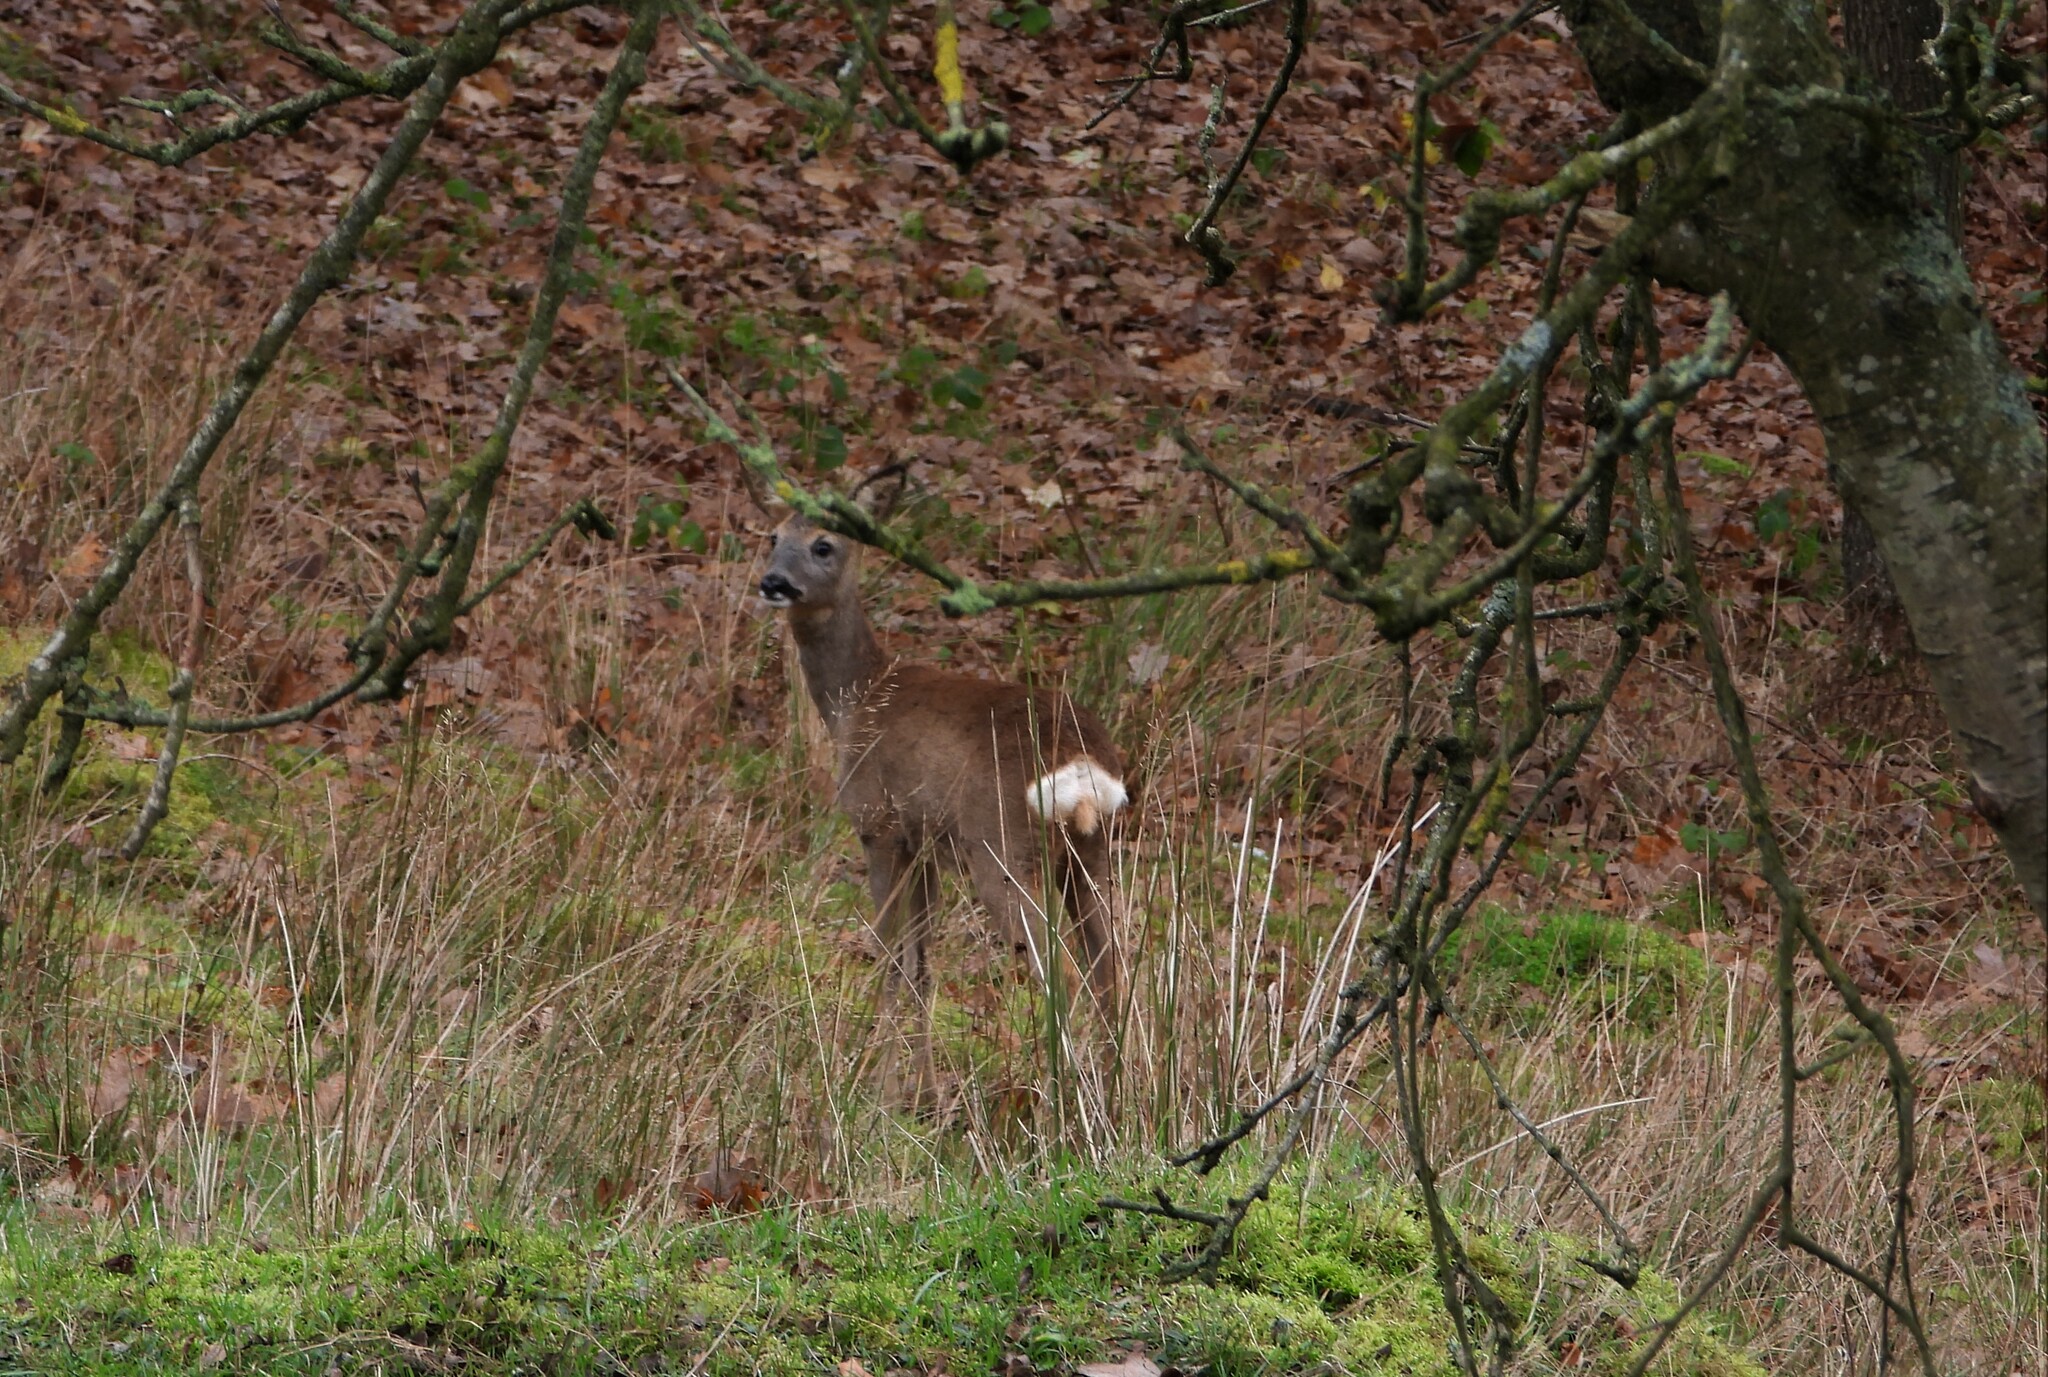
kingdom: Animalia
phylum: Chordata
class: Mammalia
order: Artiodactyla
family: Cervidae
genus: Capreolus
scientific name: Capreolus capreolus
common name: Western roe deer
